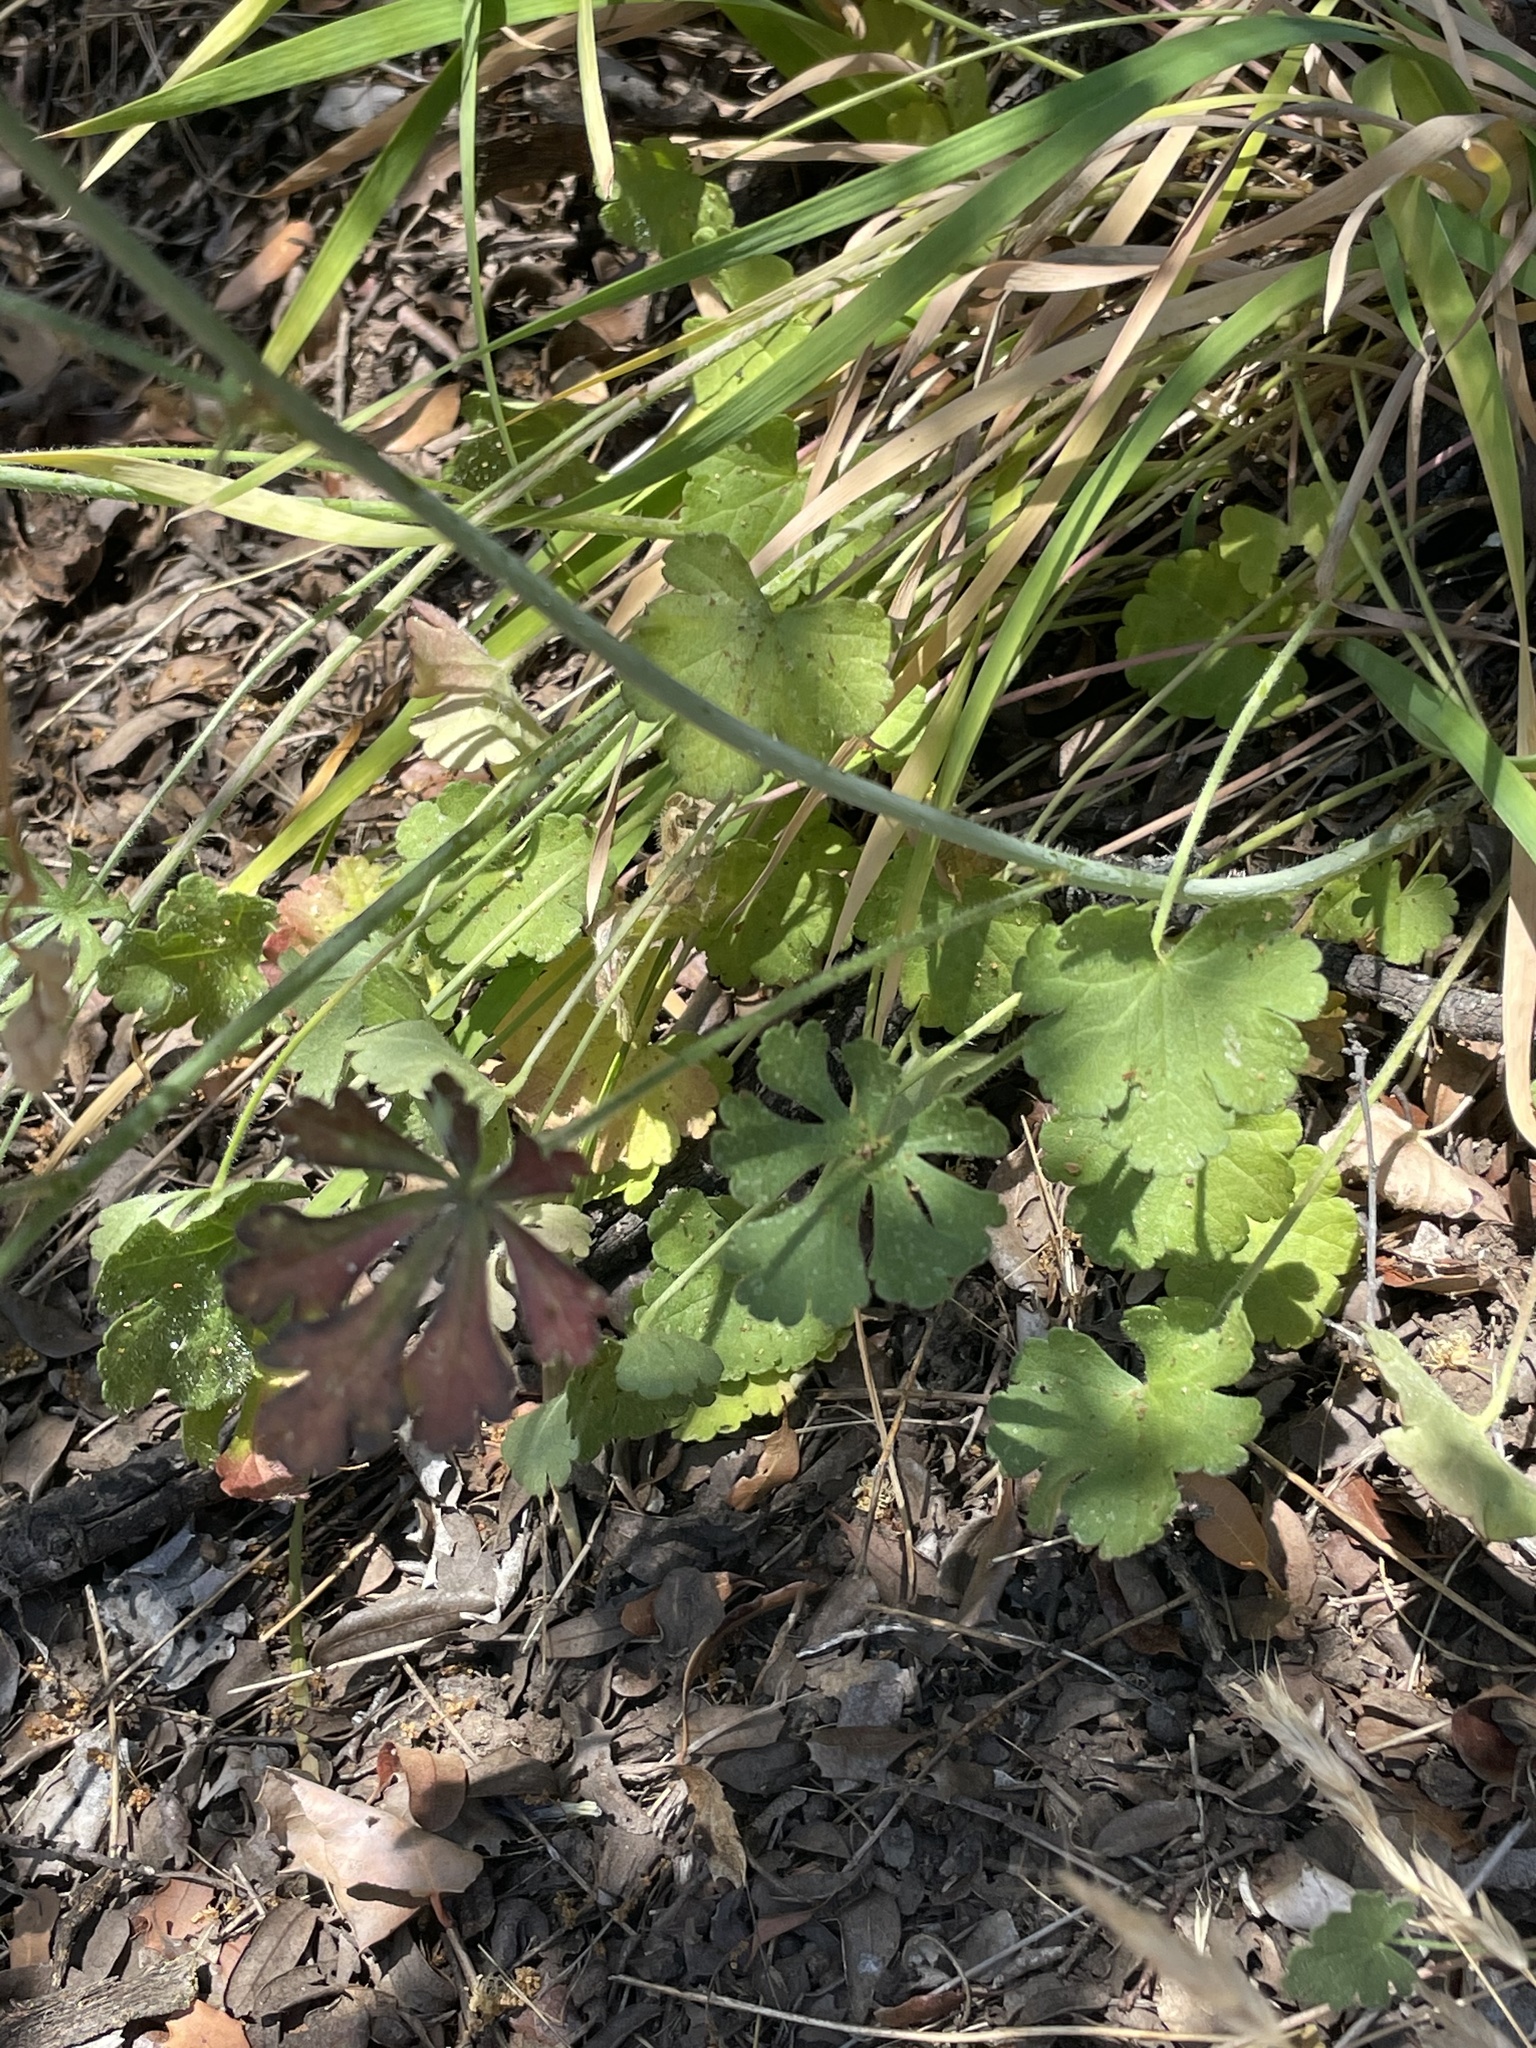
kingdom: Plantae
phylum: Tracheophyta
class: Magnoliopsida
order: Malvales
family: Malvaceae
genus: Sidalcea
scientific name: Sidalcea sparsifolia
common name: Southern checkerbloom
